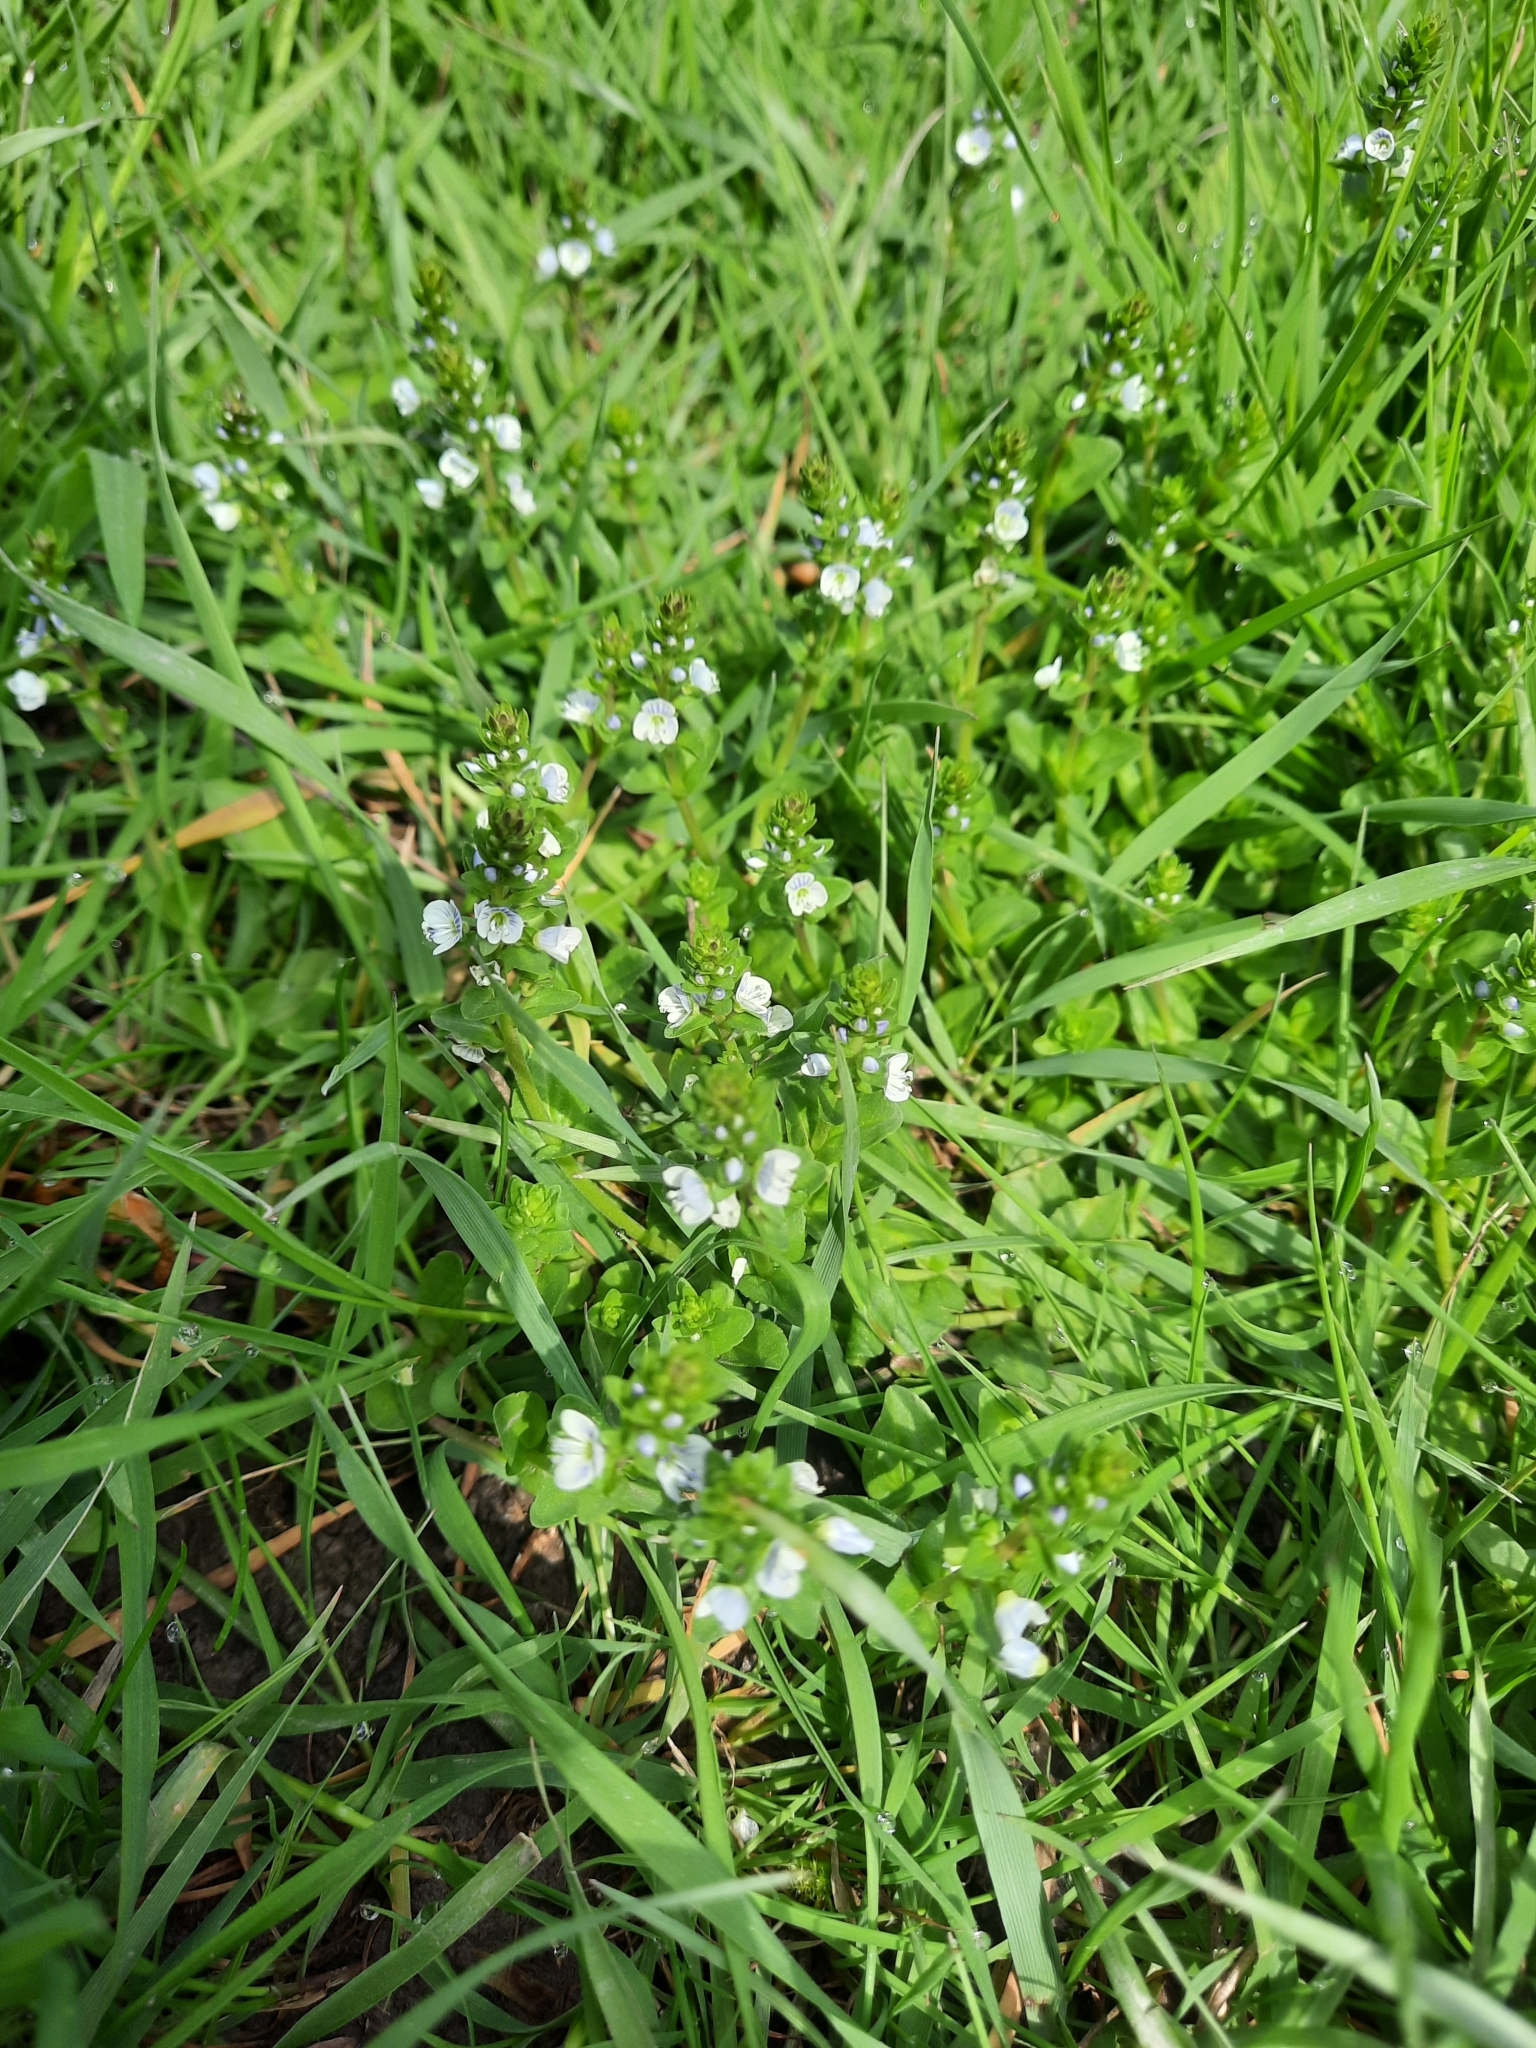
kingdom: Plantae
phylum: Tracheophyta
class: Magnoliopsida
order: Lamiales
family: Plantaginaceae
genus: Veronica
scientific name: Veronica serpyllifolia
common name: Thyme-leaved speedwell
